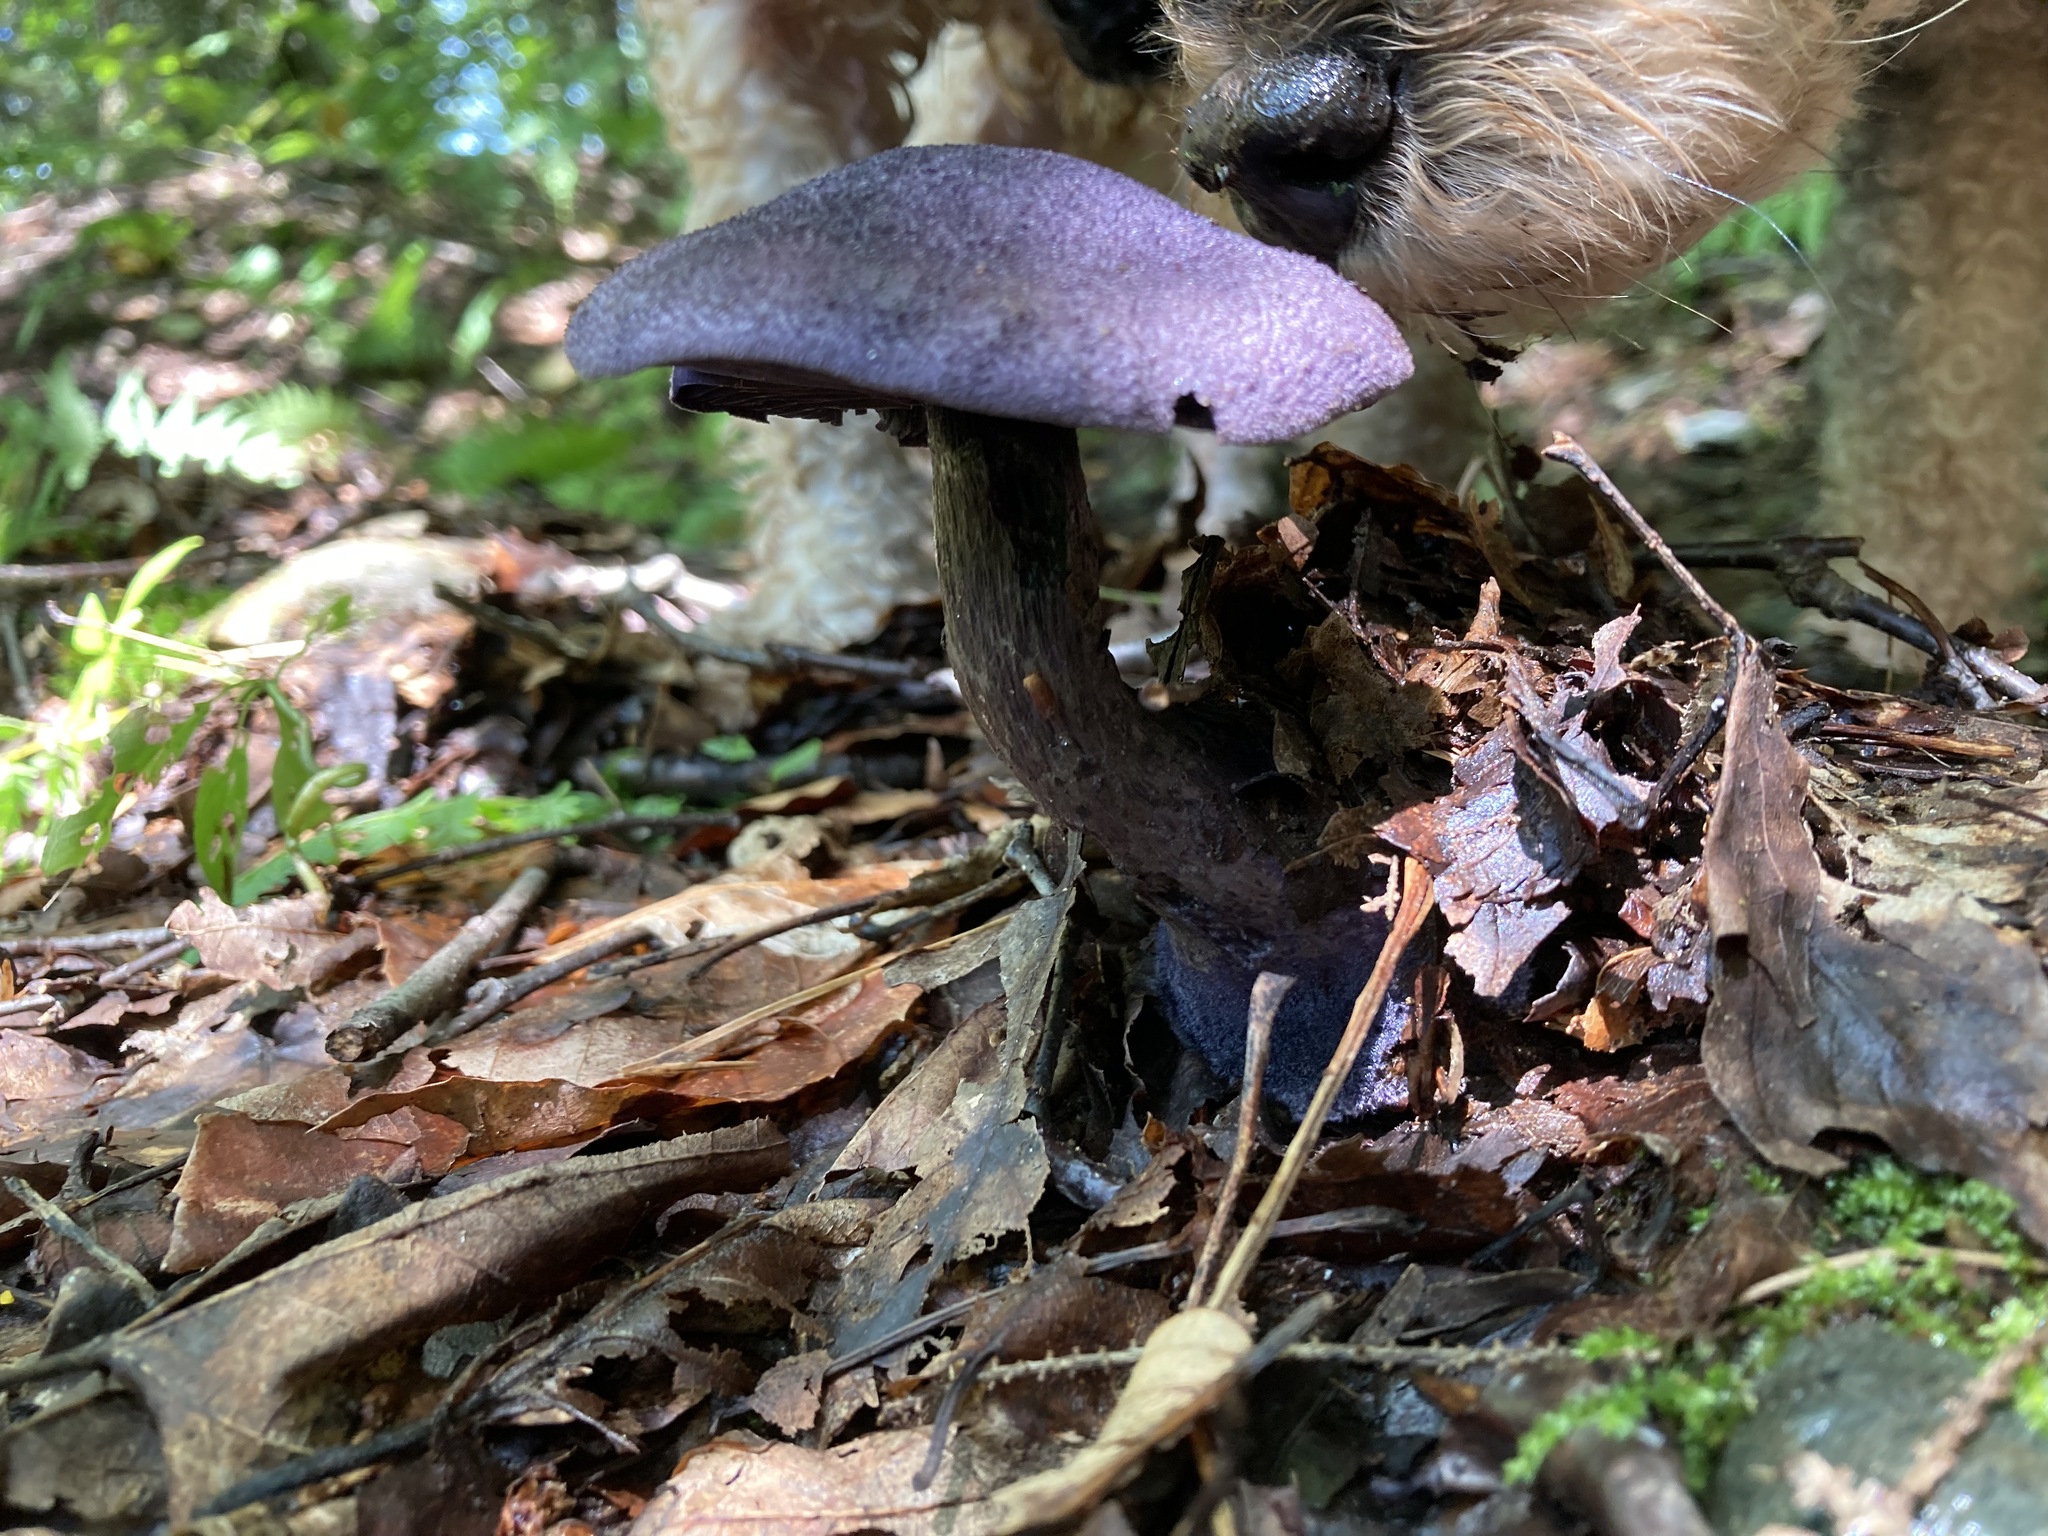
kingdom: Fungi
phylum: Basidiomycota
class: Agaricomycetes
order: Agaricales
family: Cortinariaceae
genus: Cortinarius
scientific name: Cortinarius violaceus
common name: Violet webcap
